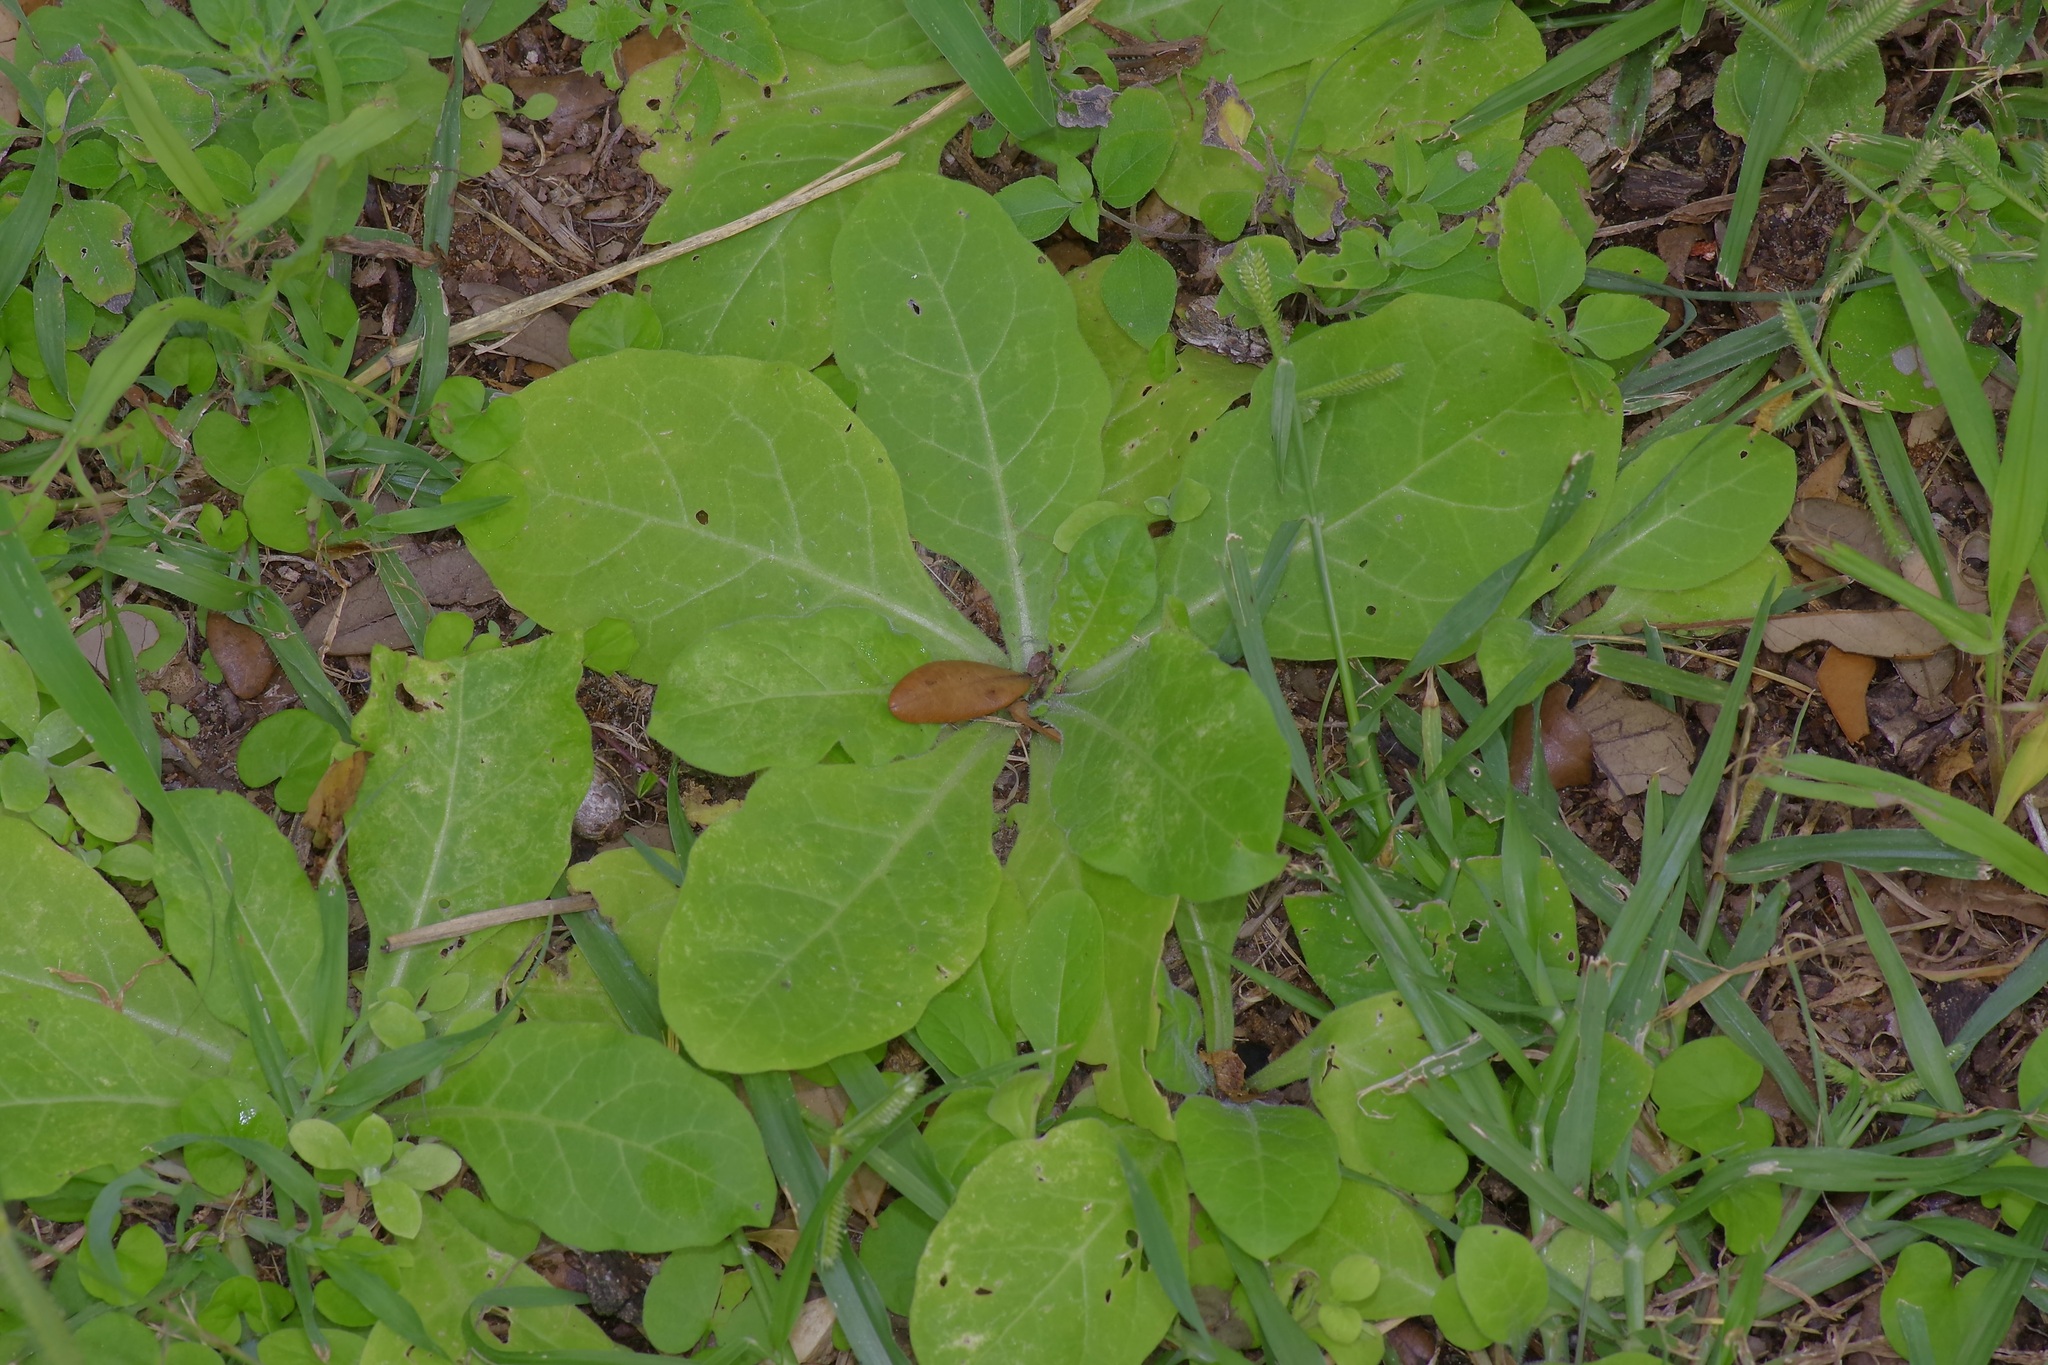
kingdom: Plantae
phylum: Tracheophyta
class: Magnoliopsida
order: Solanales
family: Solanaceae
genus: Nicotiana
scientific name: Nicotiana repanda
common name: Fiddle-leaf tobacco
